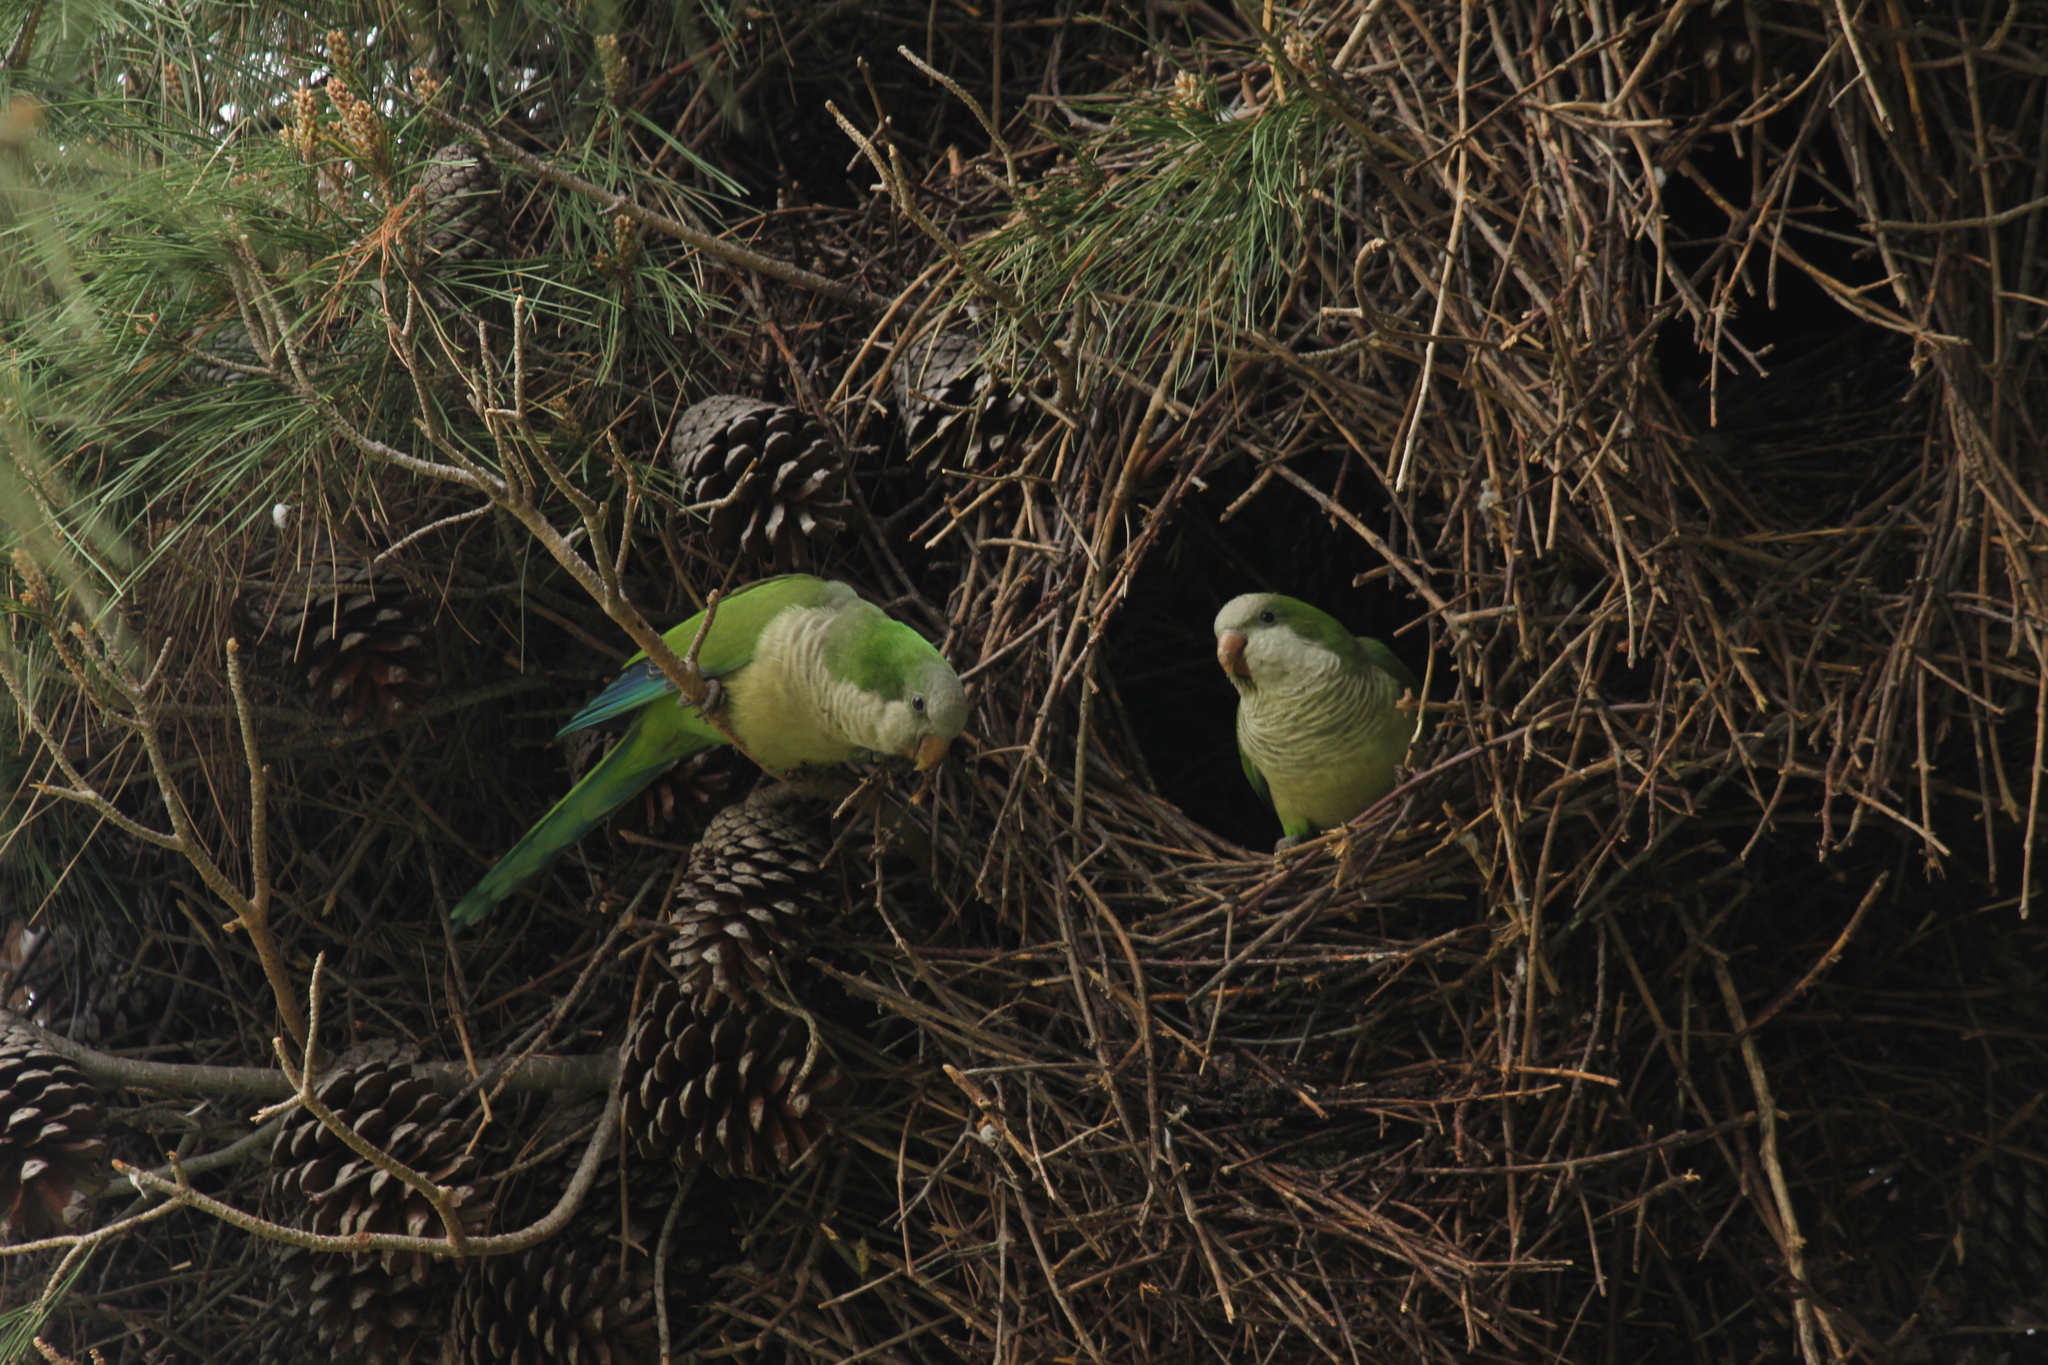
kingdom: Animalia
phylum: Chordata
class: Aves
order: Psittaciformes
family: Psittacidae
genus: Myiopsitta
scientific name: Myiopsitta monachus
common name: Monk parakeet
